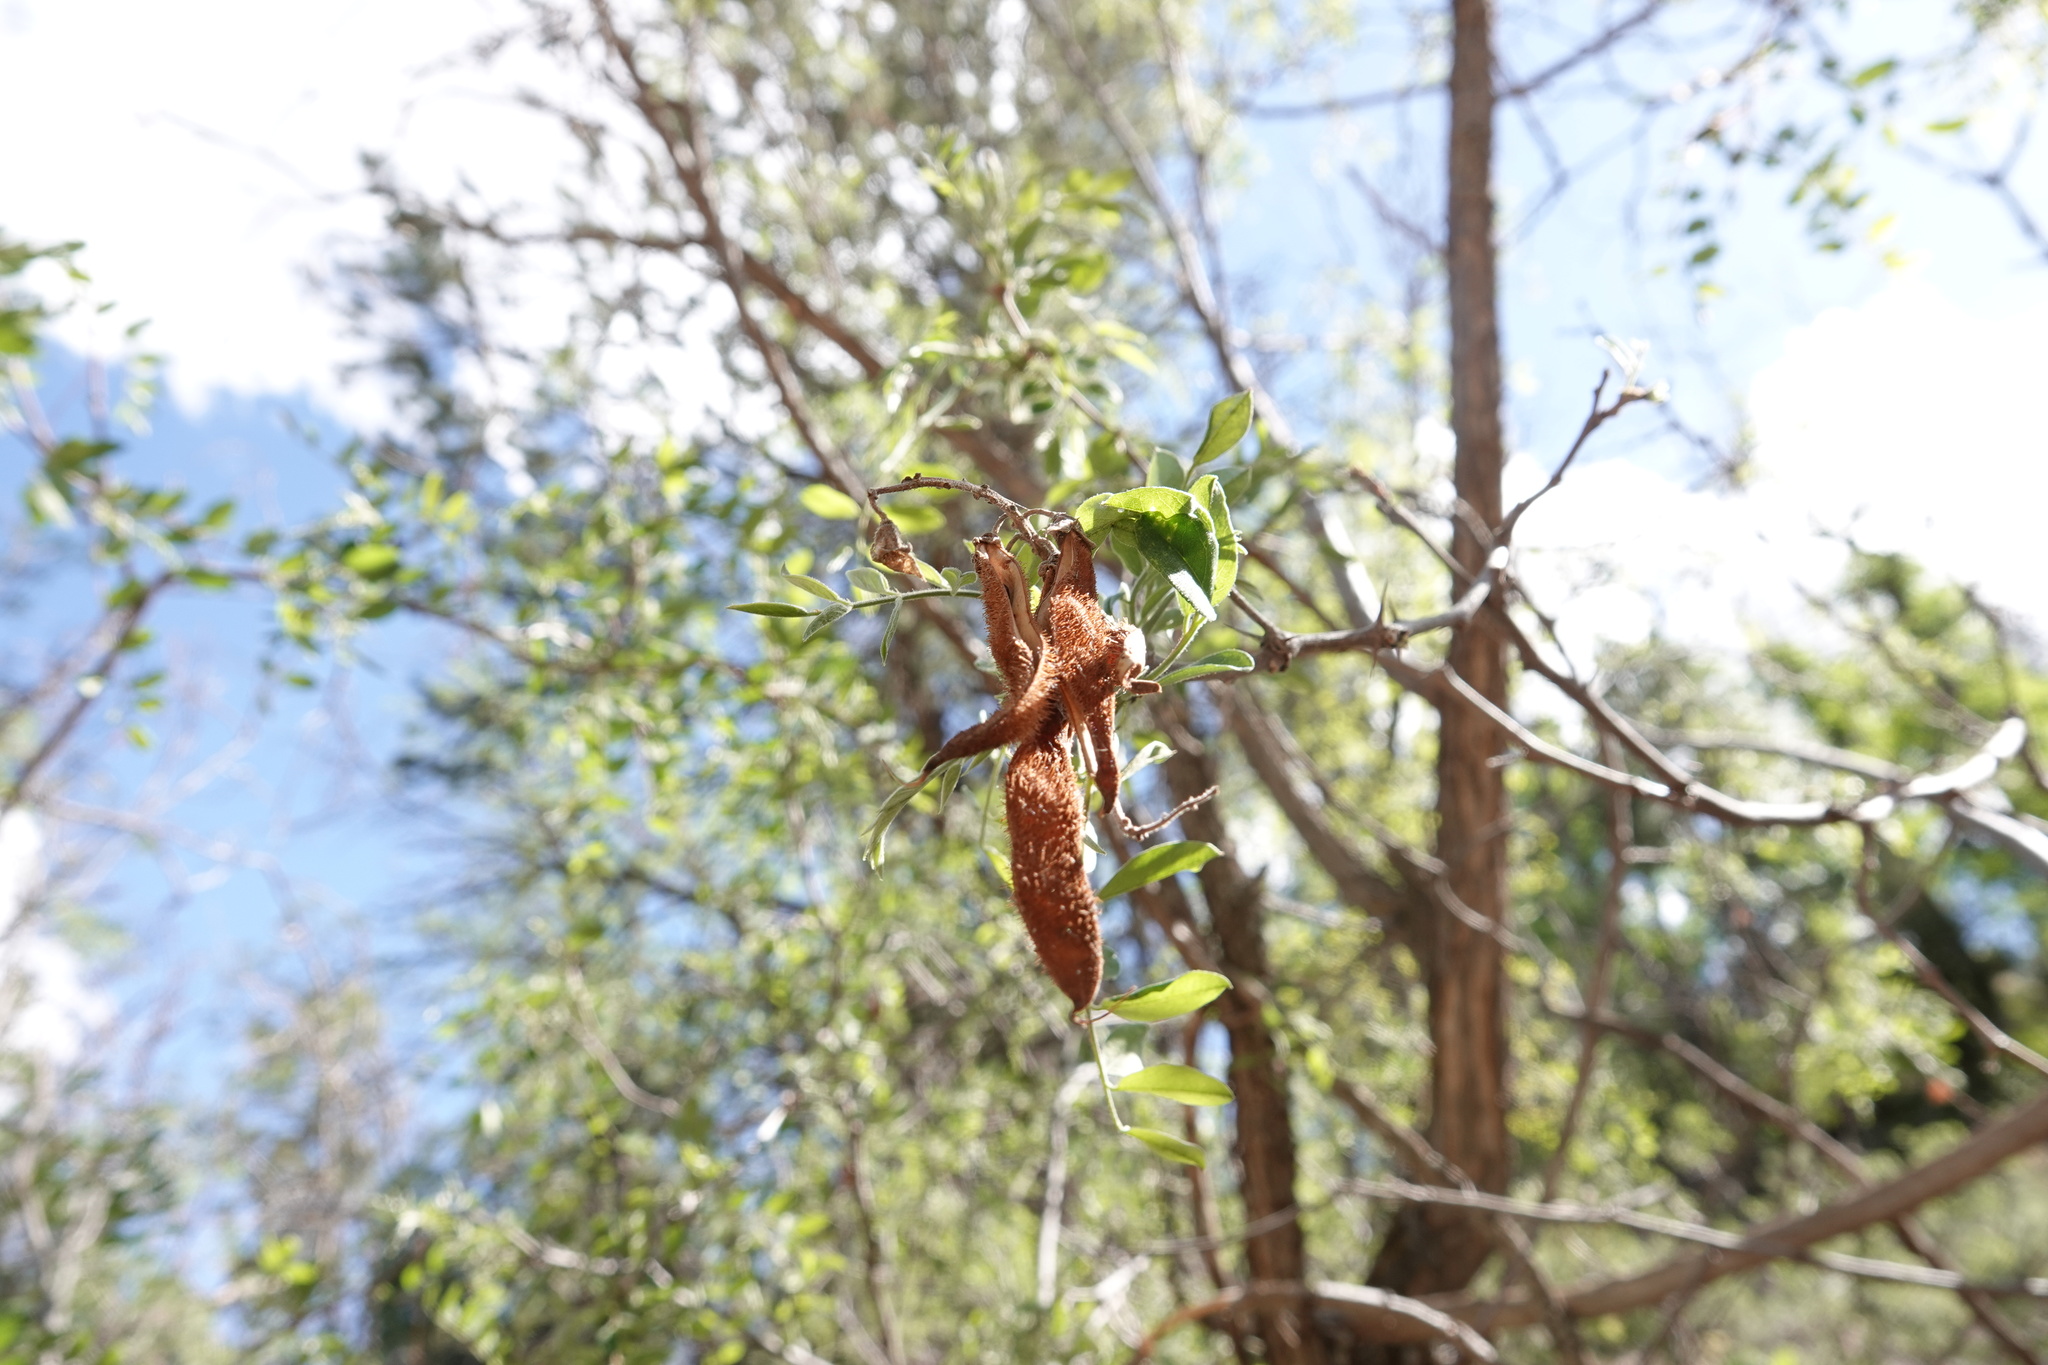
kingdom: Plantae
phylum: Tracheophyta
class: Magnoliopsida
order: Fabales
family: Fabaceae
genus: Robinia
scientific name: Robinia neomexicana
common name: New mexico locust
